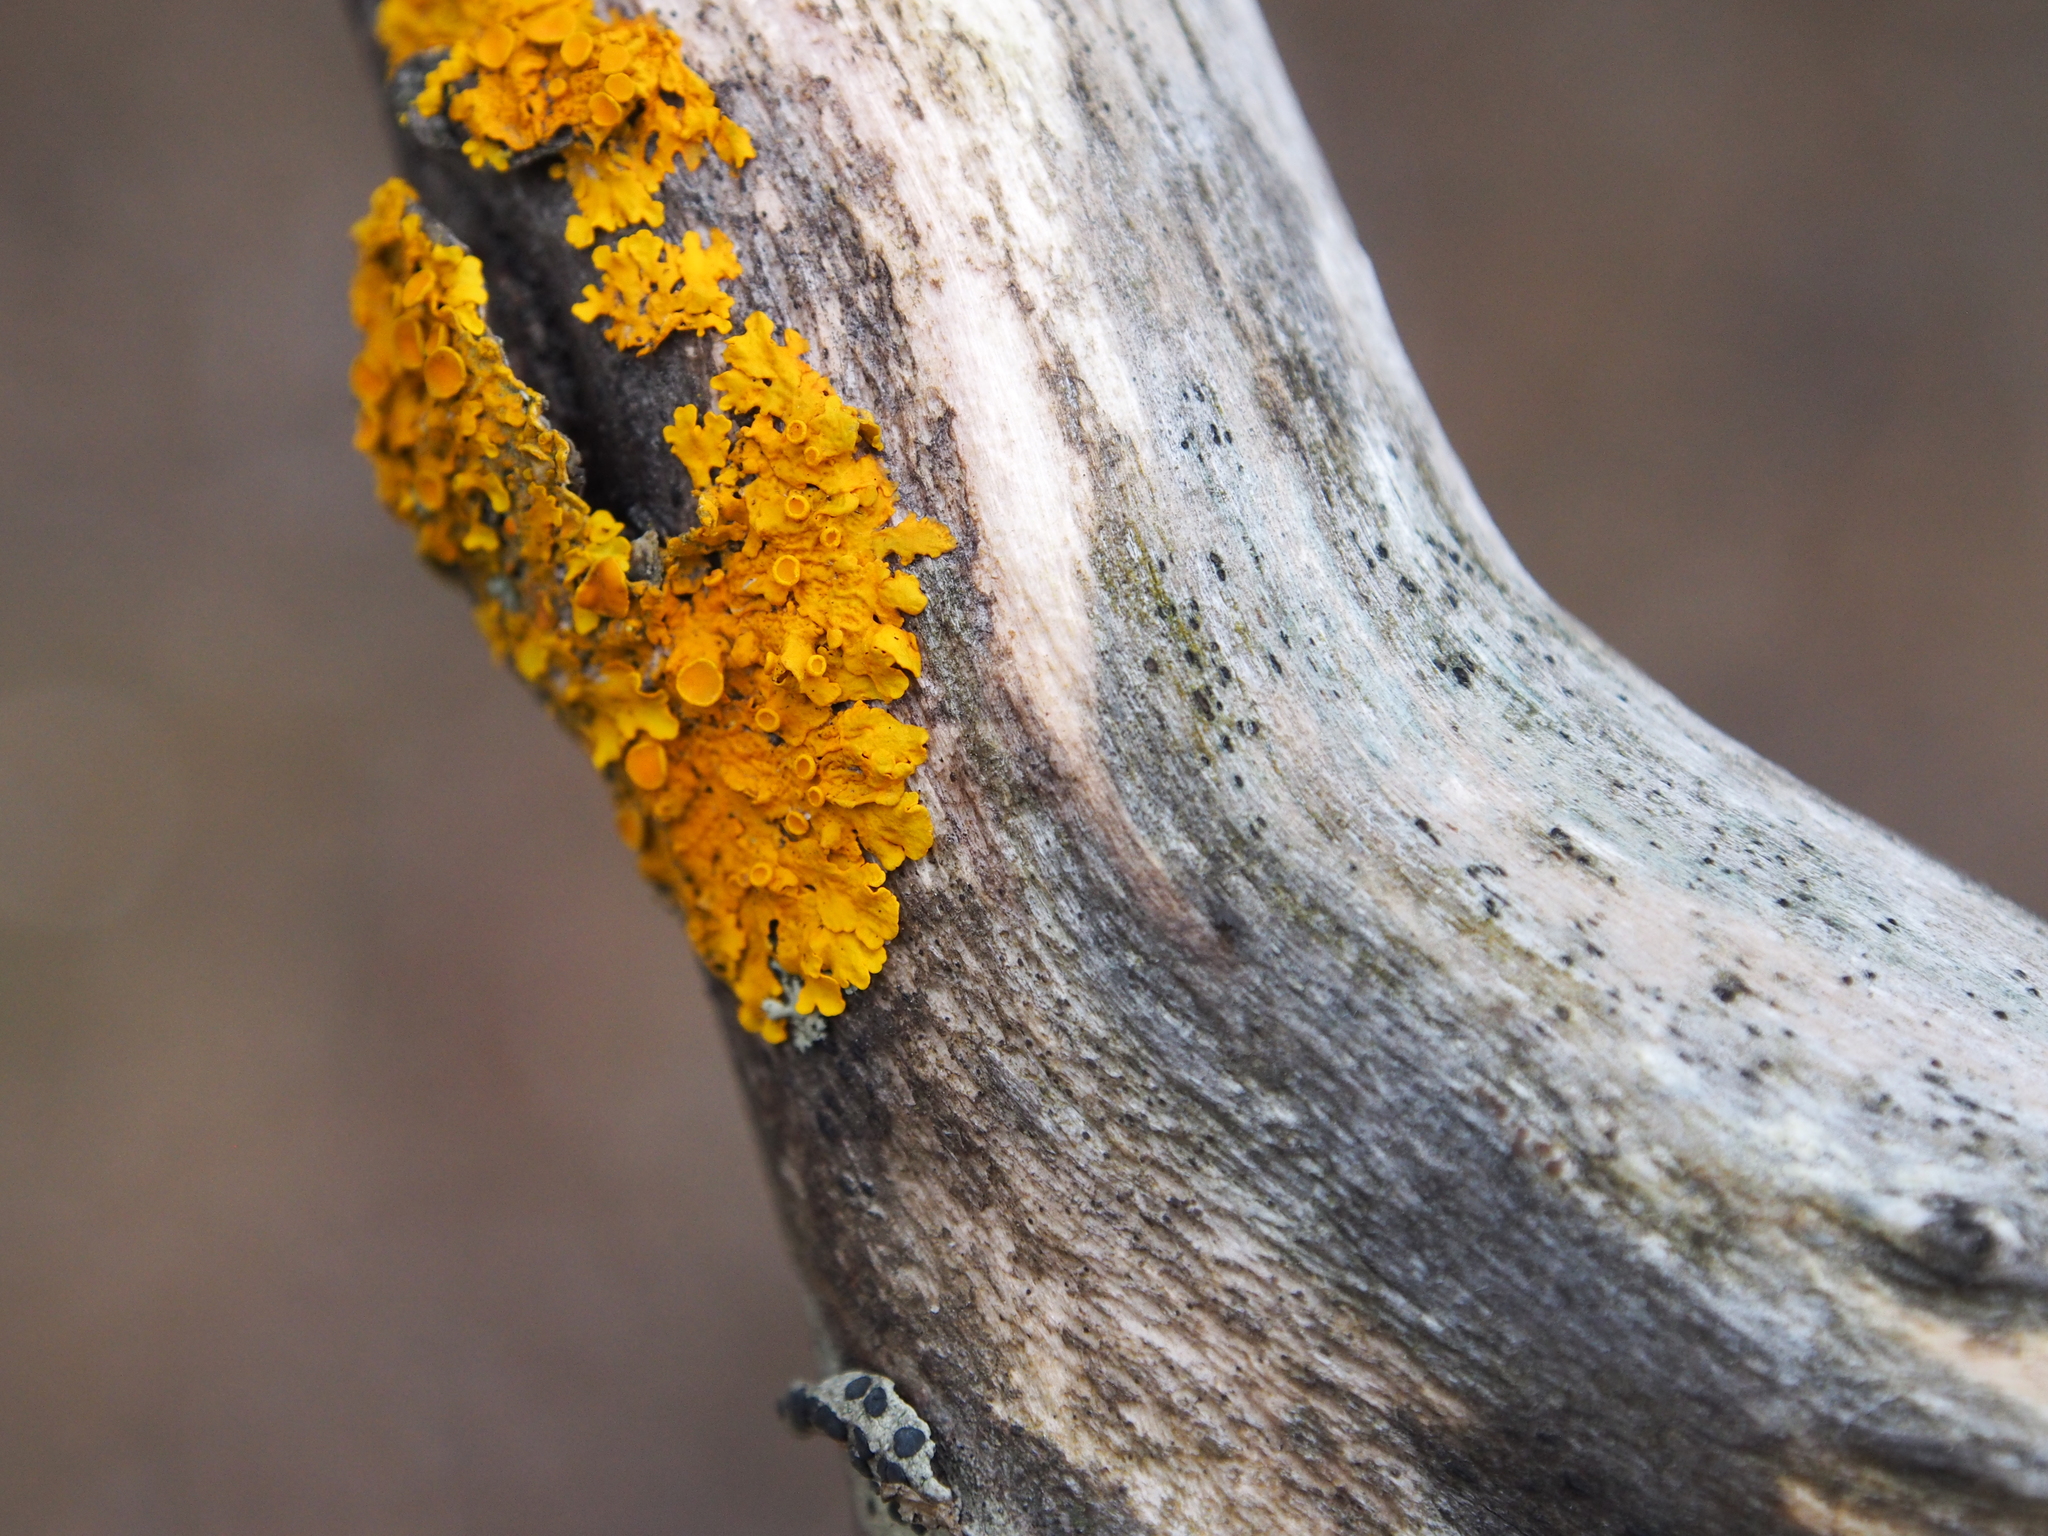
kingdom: Fungi
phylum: Ascomycota
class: Lecanoromycetes
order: Teloschistales
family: Teloschistaceae
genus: Xanthoria
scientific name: Xanthoria parietina
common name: Common orange lichen
